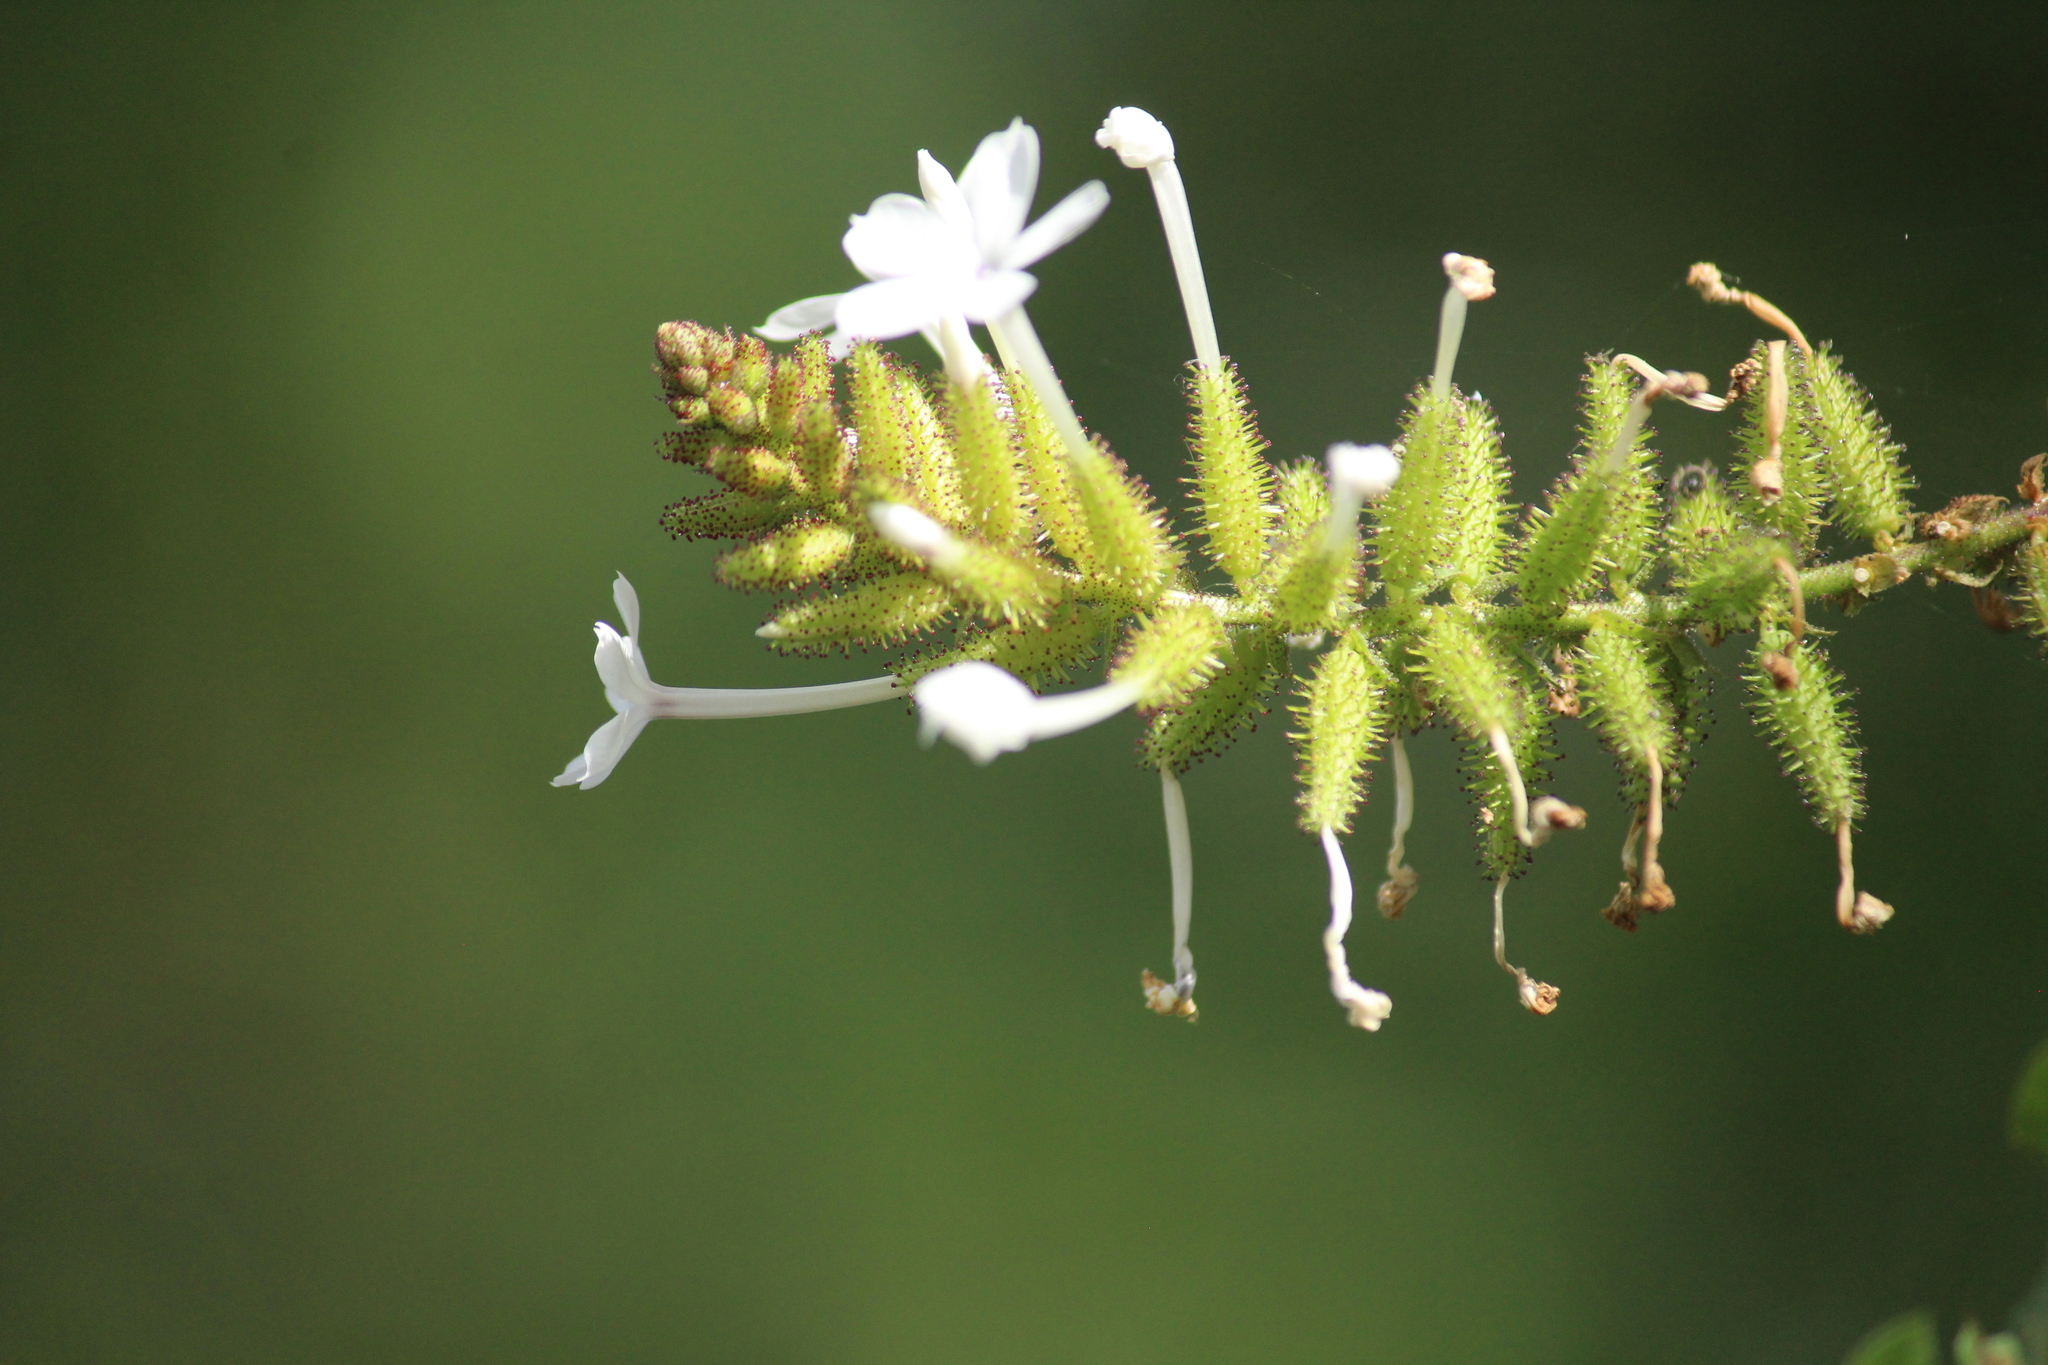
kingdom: Plantae
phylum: Tracheophyta
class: Magnoliopsida
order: Caryophyllales
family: Plumbaginaceae
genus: Plumbago
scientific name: Plumbago zeylanica
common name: Doctorbush
